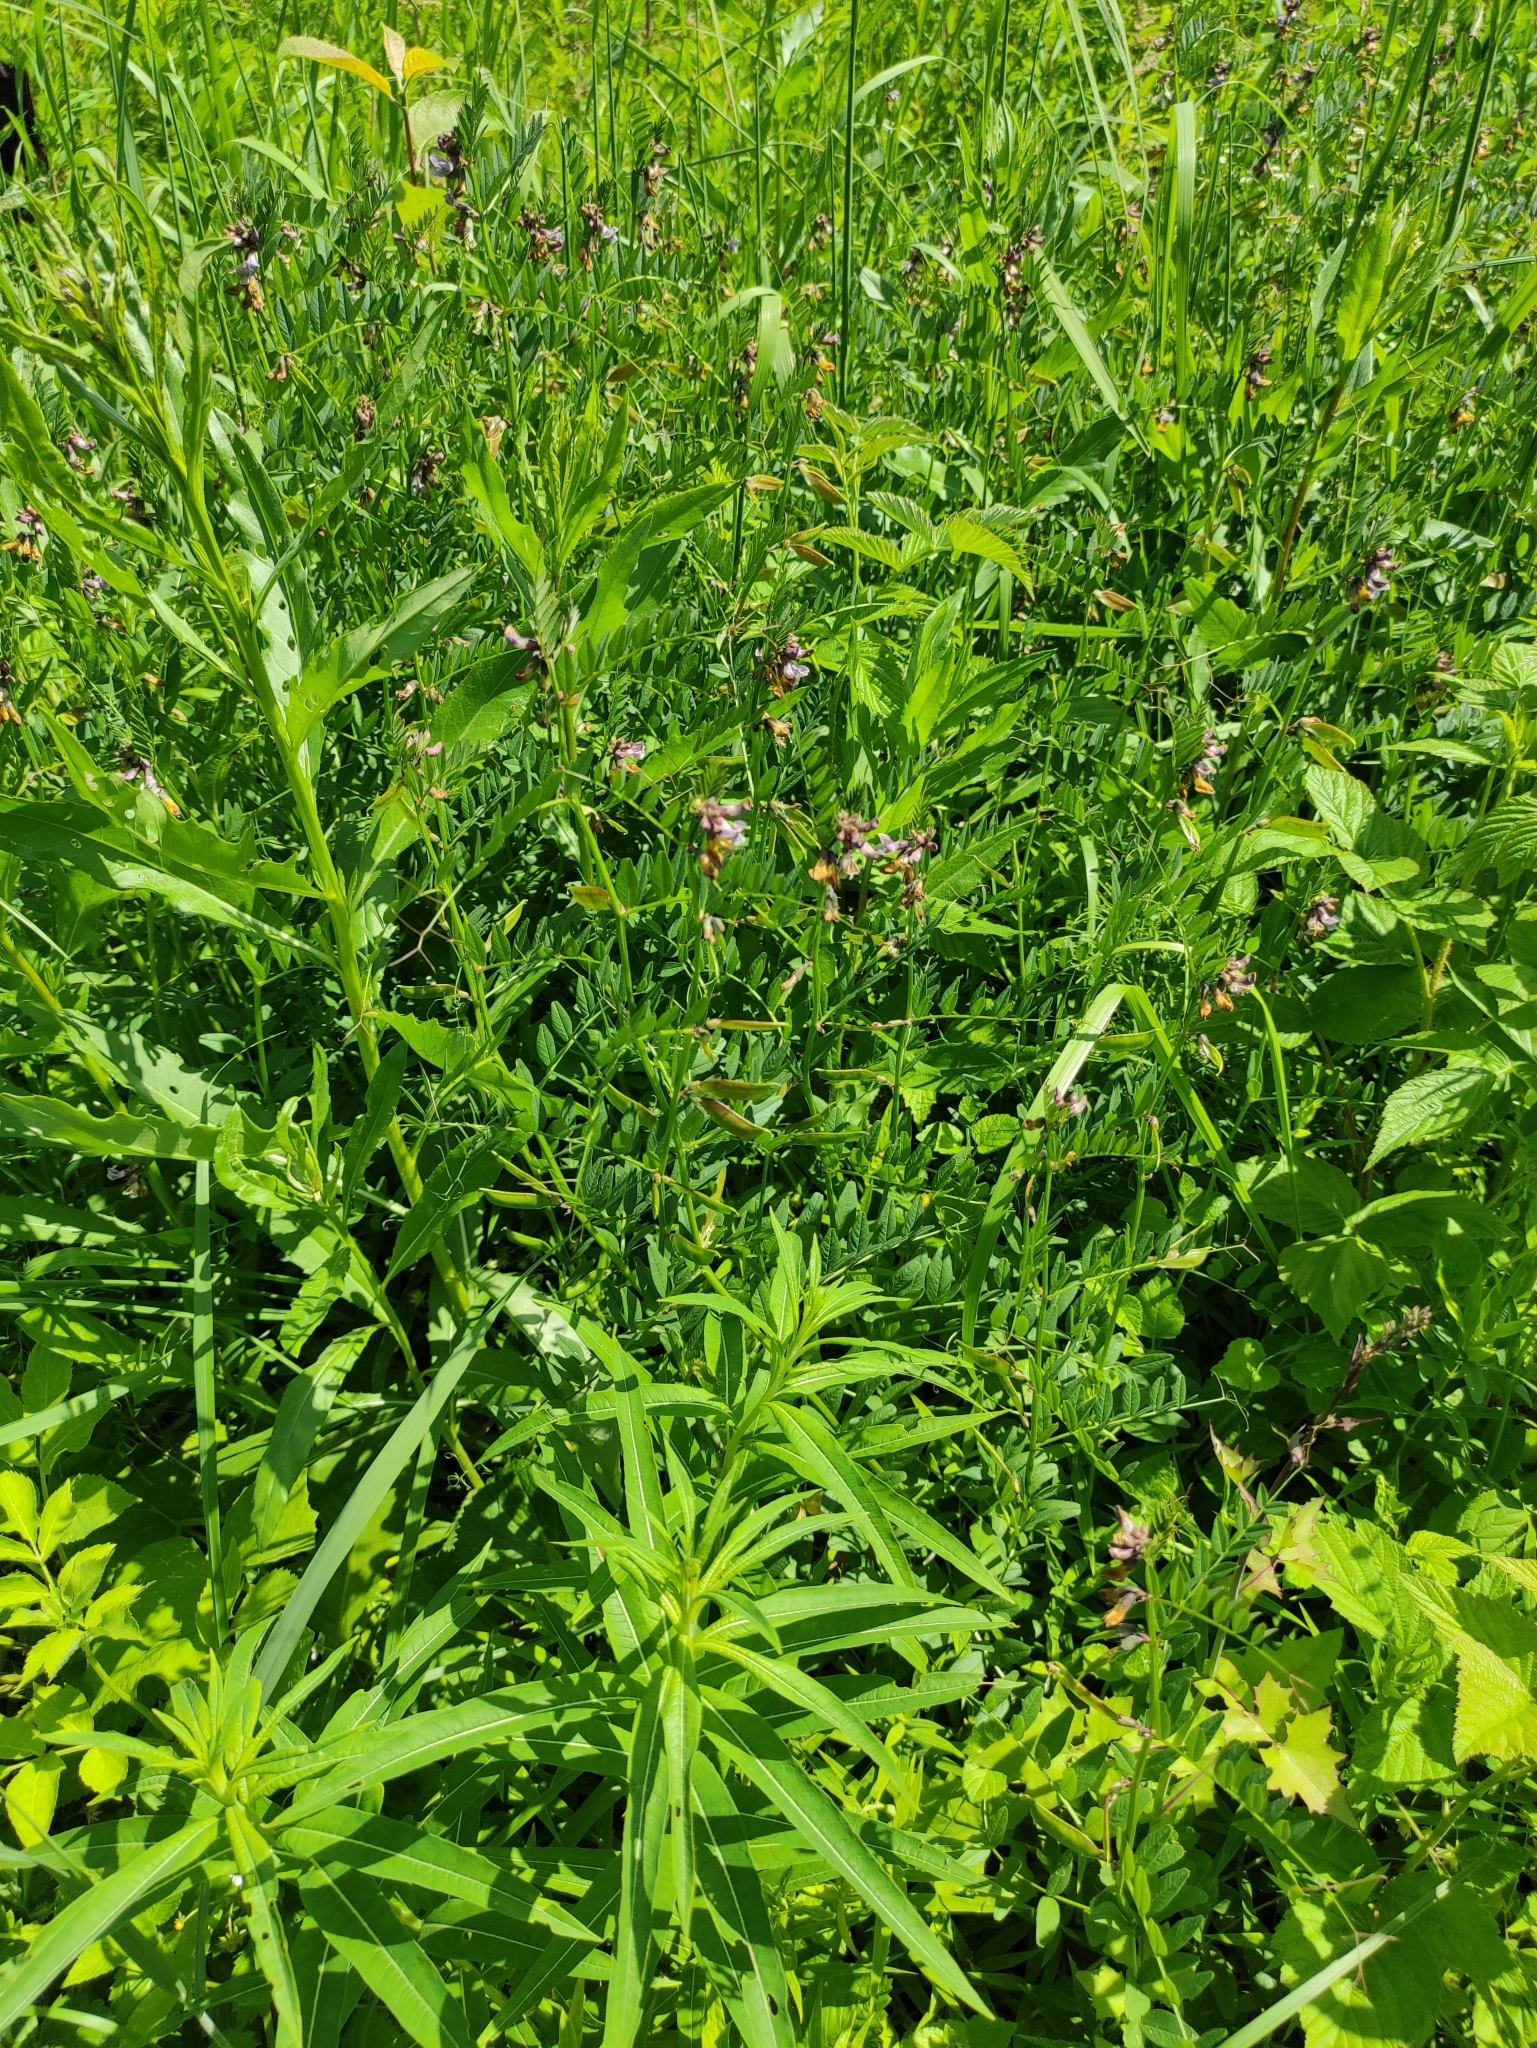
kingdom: Plantae
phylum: Tracheophyta
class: Magnoliopsida
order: Fabales
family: Fabaceae
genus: Vicia
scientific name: Vicia sepium
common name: Bush vetch
